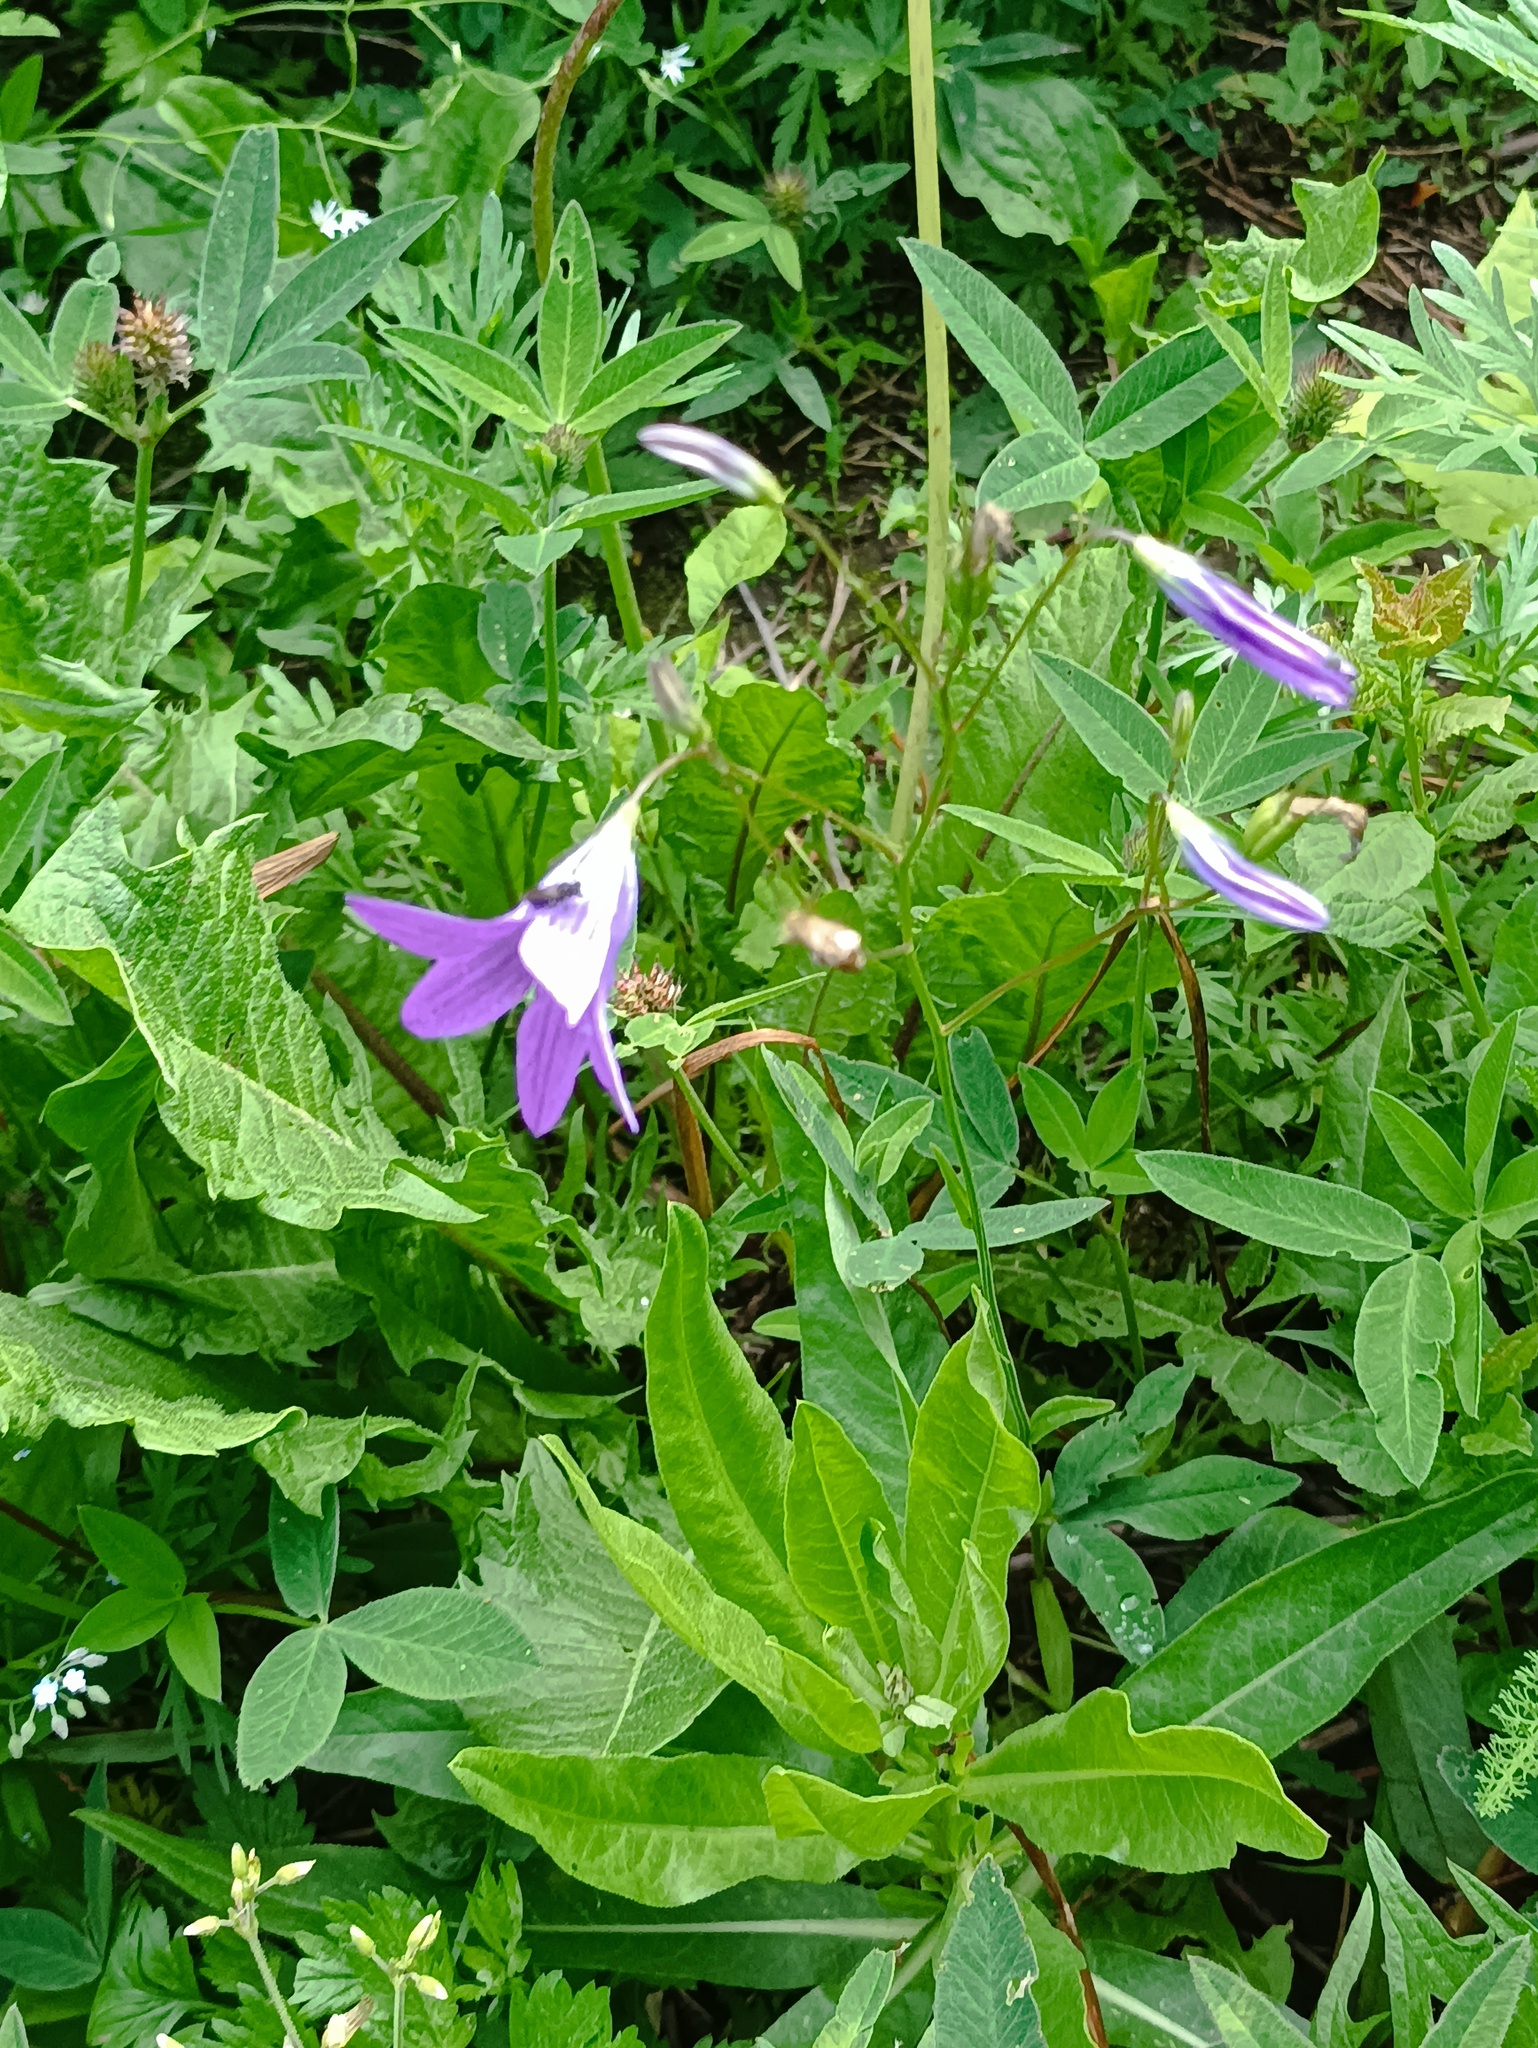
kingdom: Plantae
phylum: Tracheophyta
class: Magnoliopsida
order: Asterales
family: Campanulaceae
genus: Campanula
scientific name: Campanula patula
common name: Spreading bellflower
